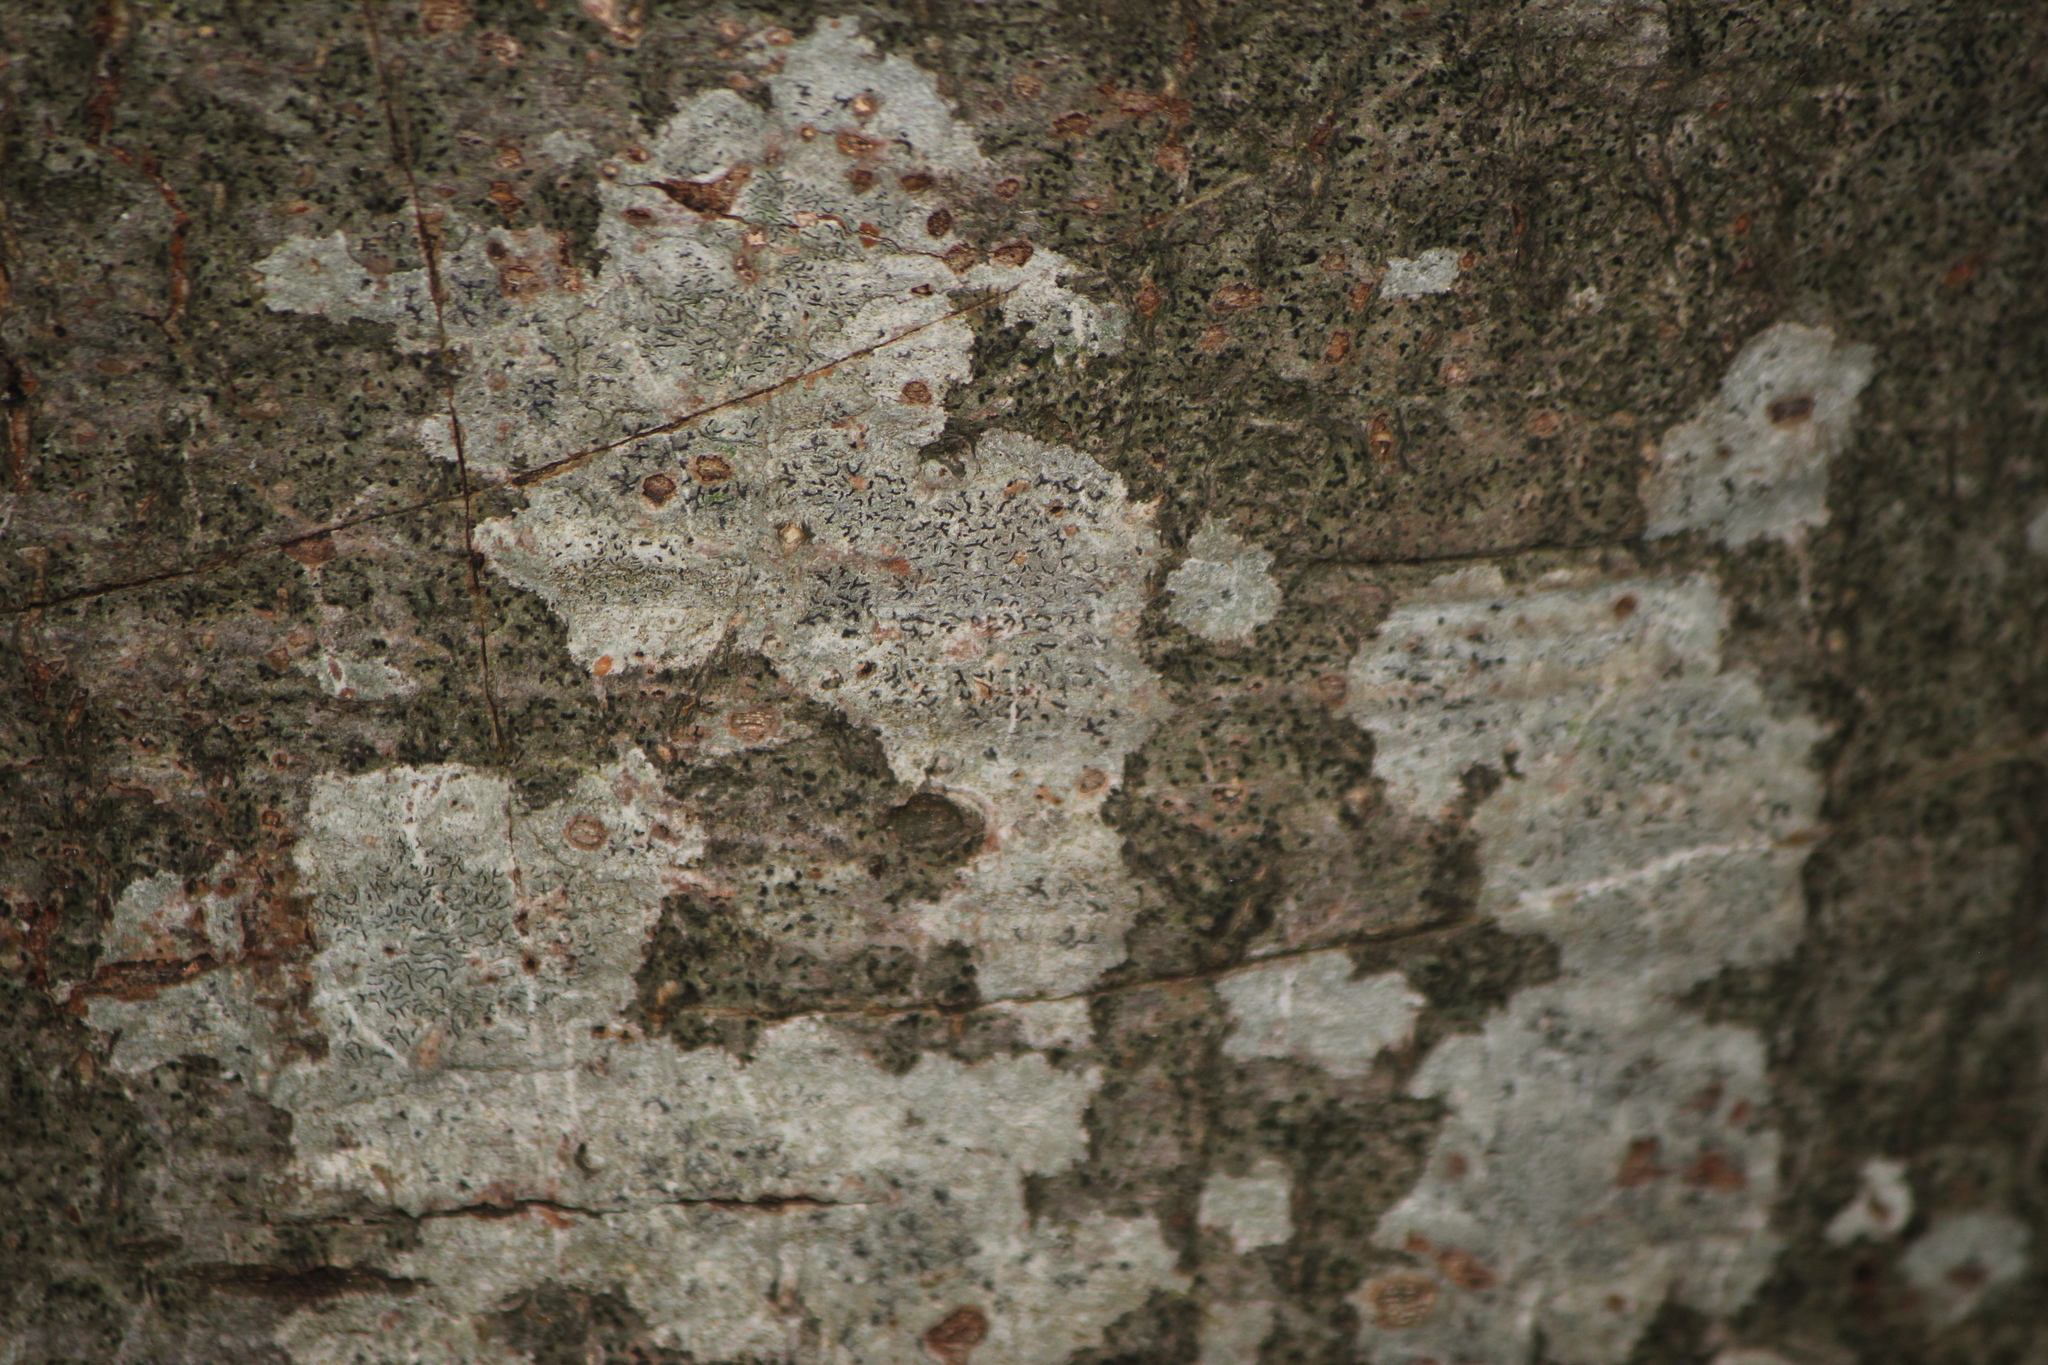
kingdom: Fungi
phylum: Ascomycota
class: Lecanoromycetes
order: Ostropales
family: Graphidaceae
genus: Graphis
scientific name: Graphis scripta
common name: Script lichen
